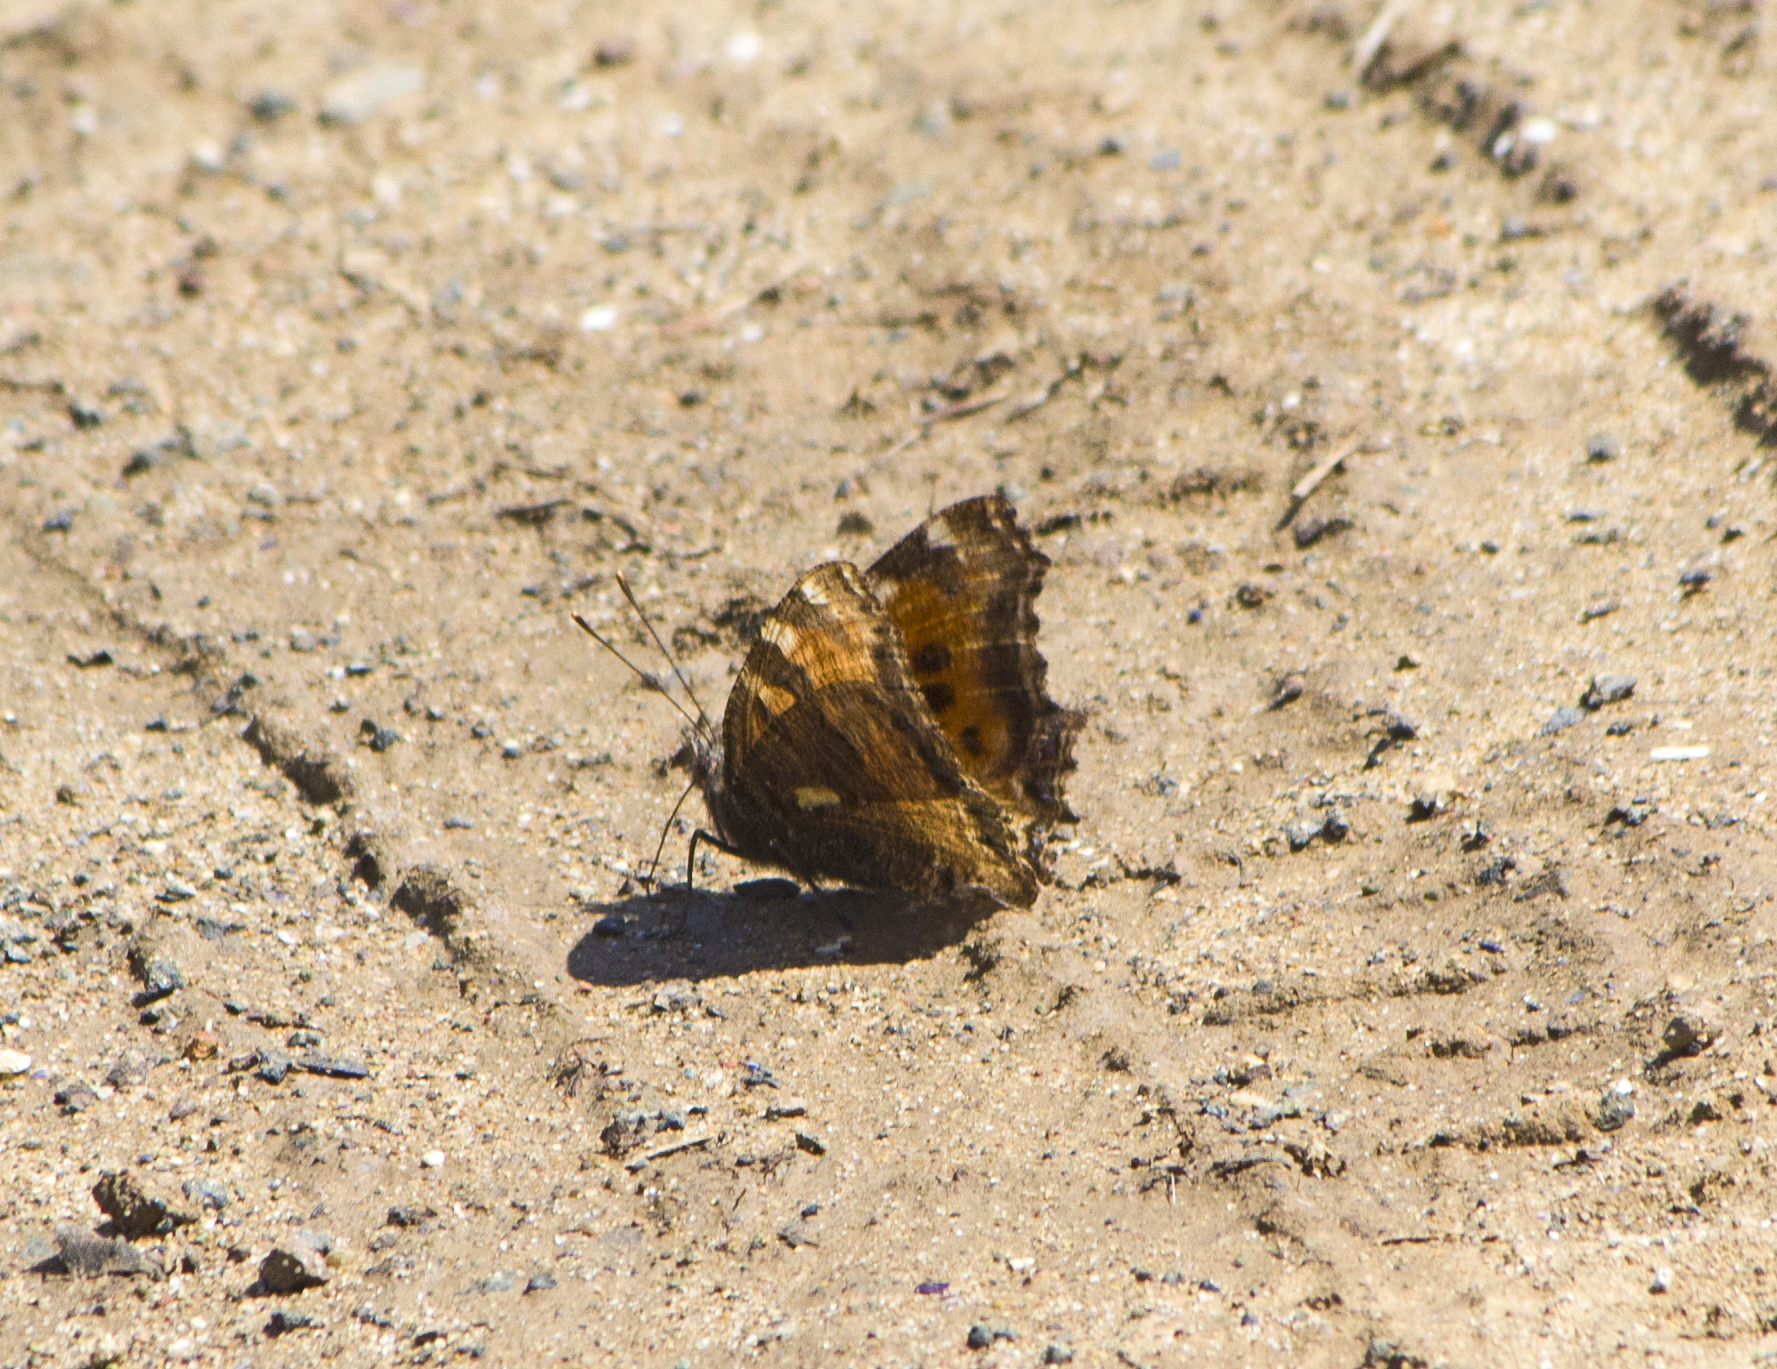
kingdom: Animalia
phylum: Arthropoda
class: Insecta
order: Lepidoptera
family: Nymphalidae
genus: Nymphalis
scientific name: Nymphalis polychloros
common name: Large tortoiseshell
